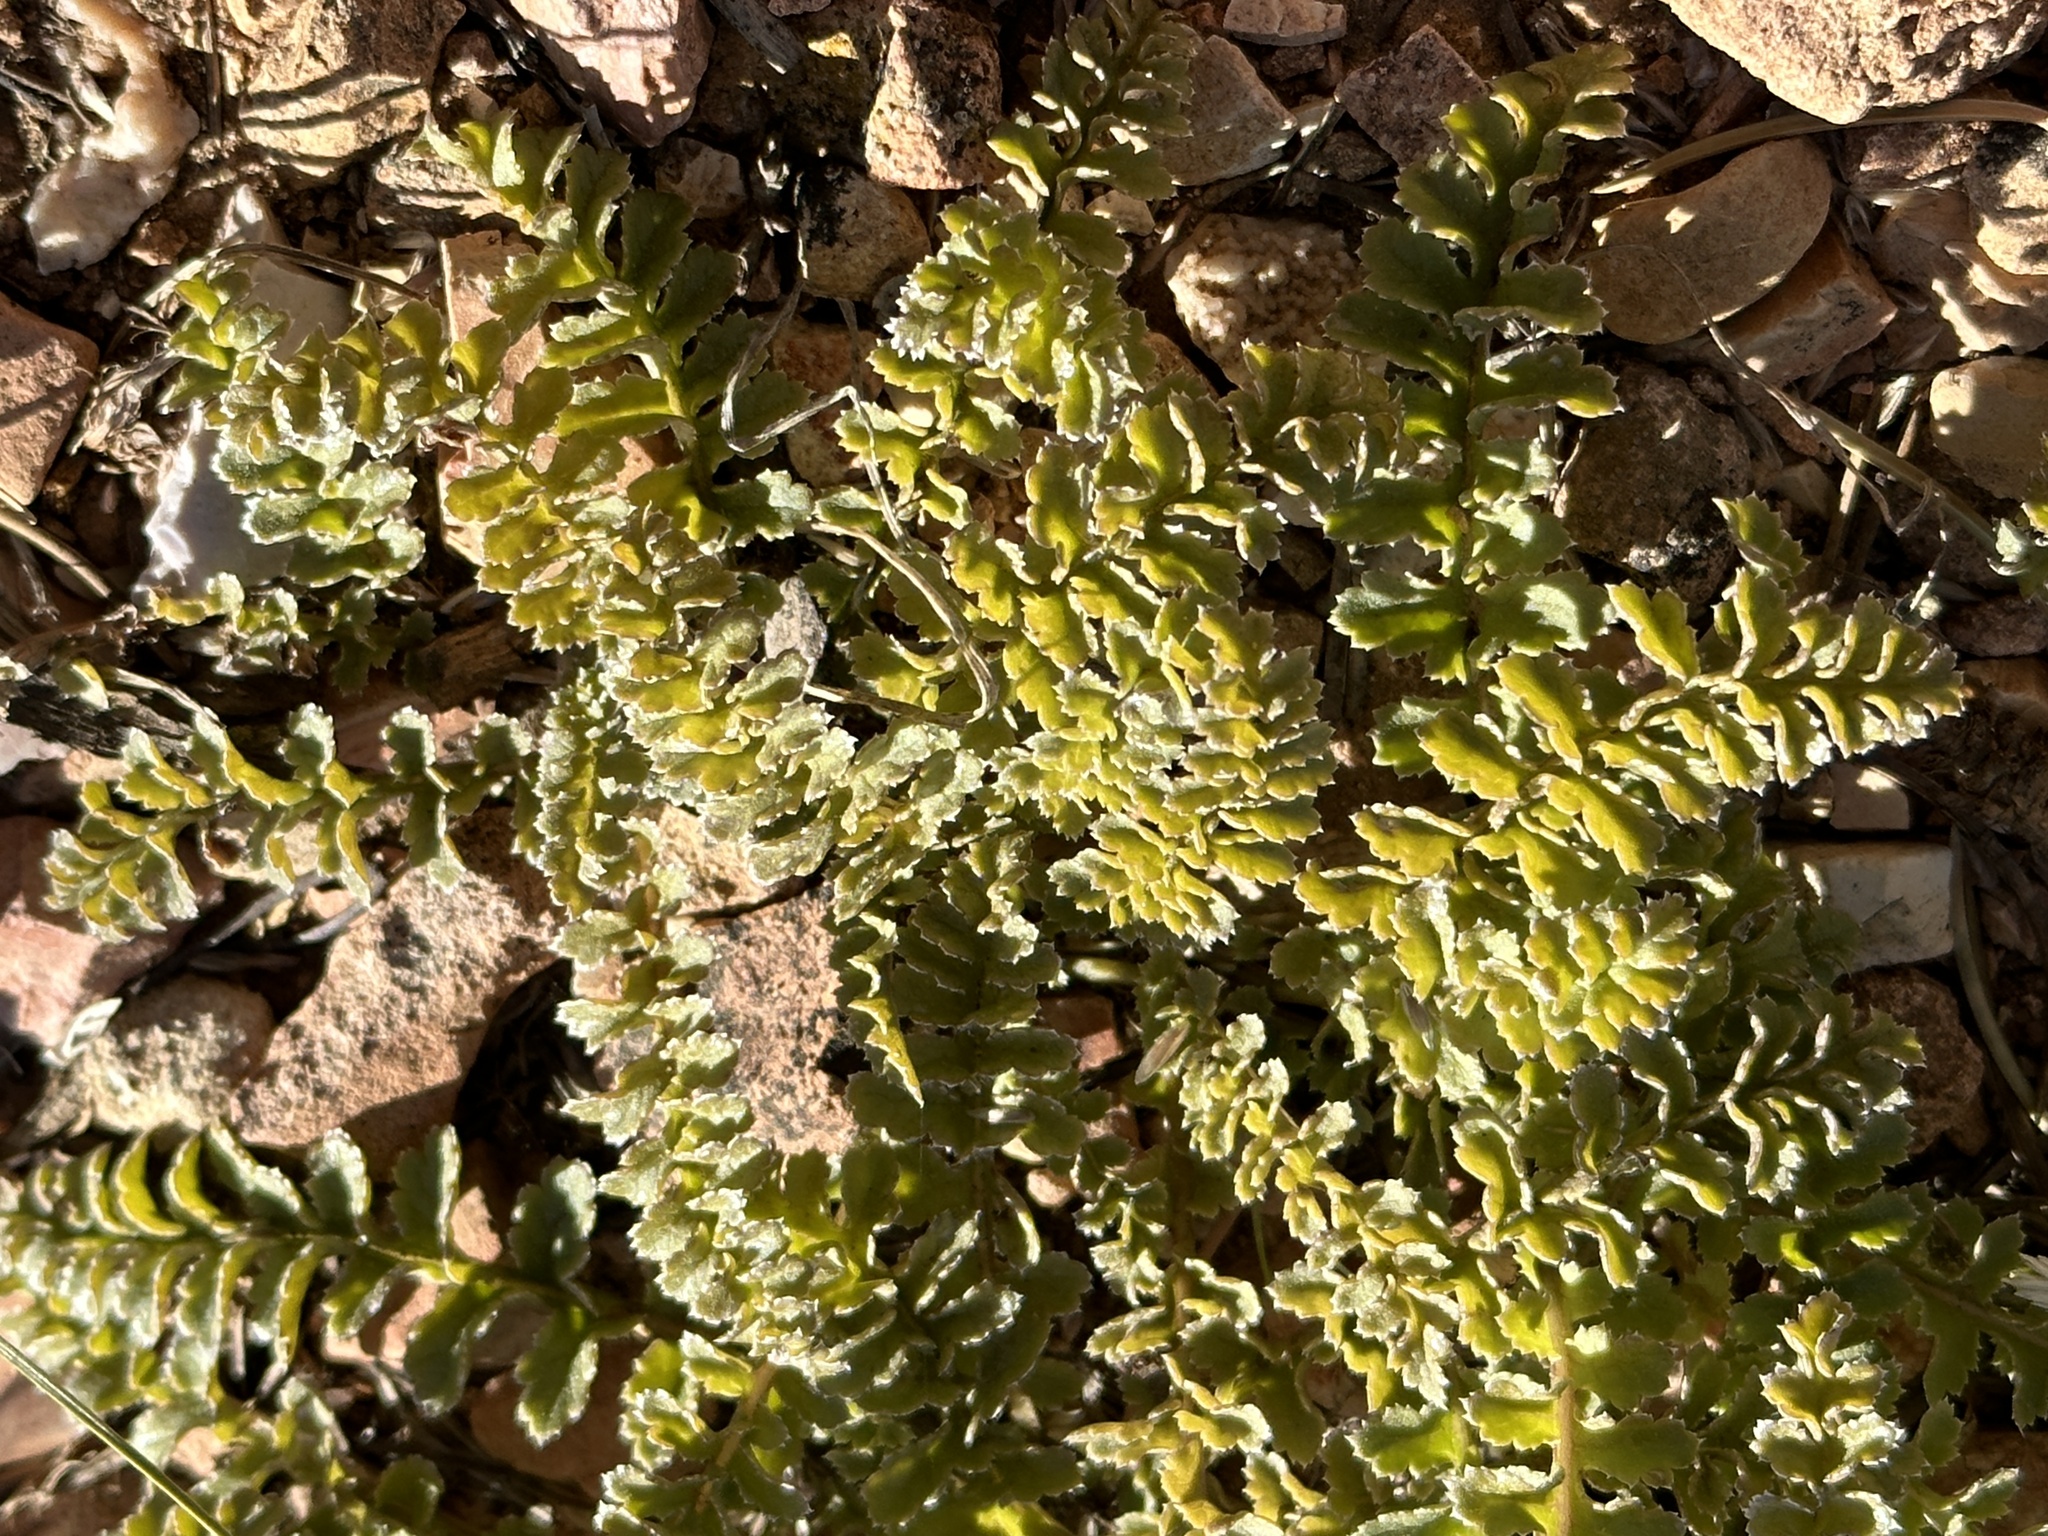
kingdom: Plantae
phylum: Tracheophyta
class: Magnoliopsida
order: Lamiales
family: Orobanchaceae
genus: Pedicularis
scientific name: Pedicularis centranthera
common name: Dwarf lousewort
